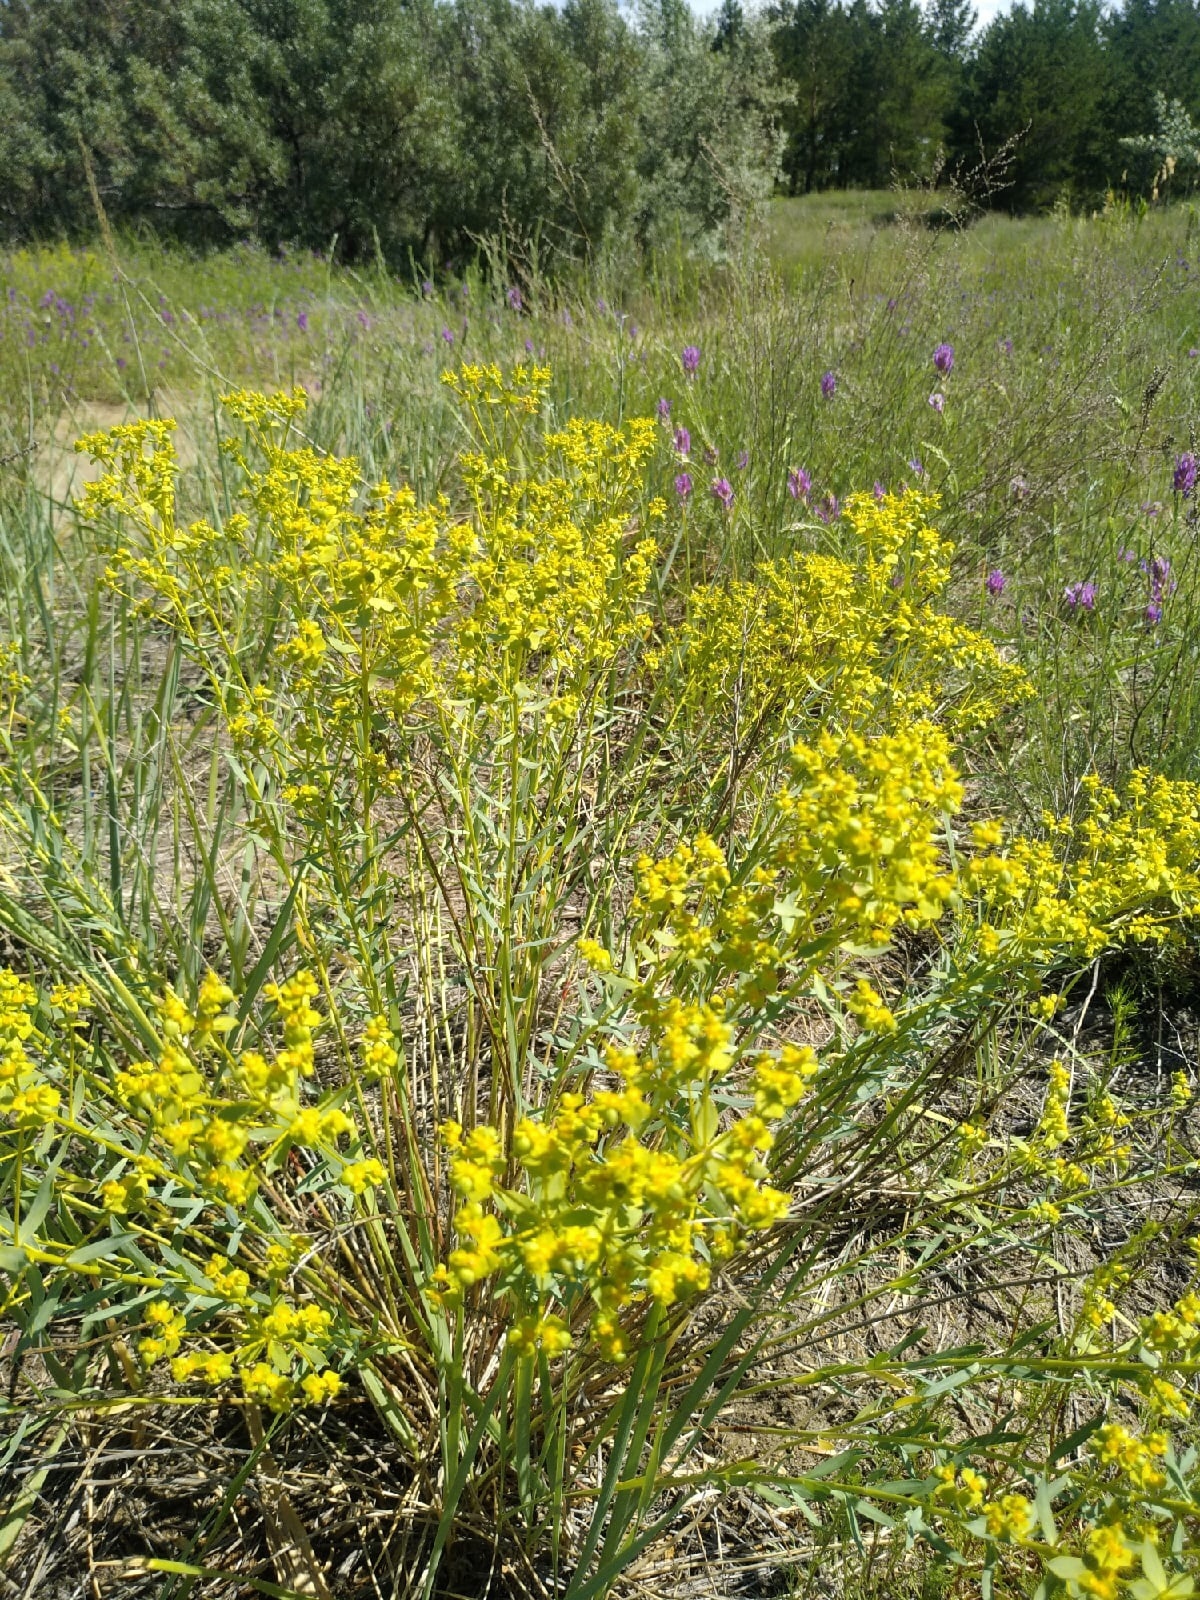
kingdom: Plantae
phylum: Tracheophyta
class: Magnoliopsida
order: Malpighiales
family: Euphorbiaceae
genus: Euphorbia
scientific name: Euphorbia seguieriana
